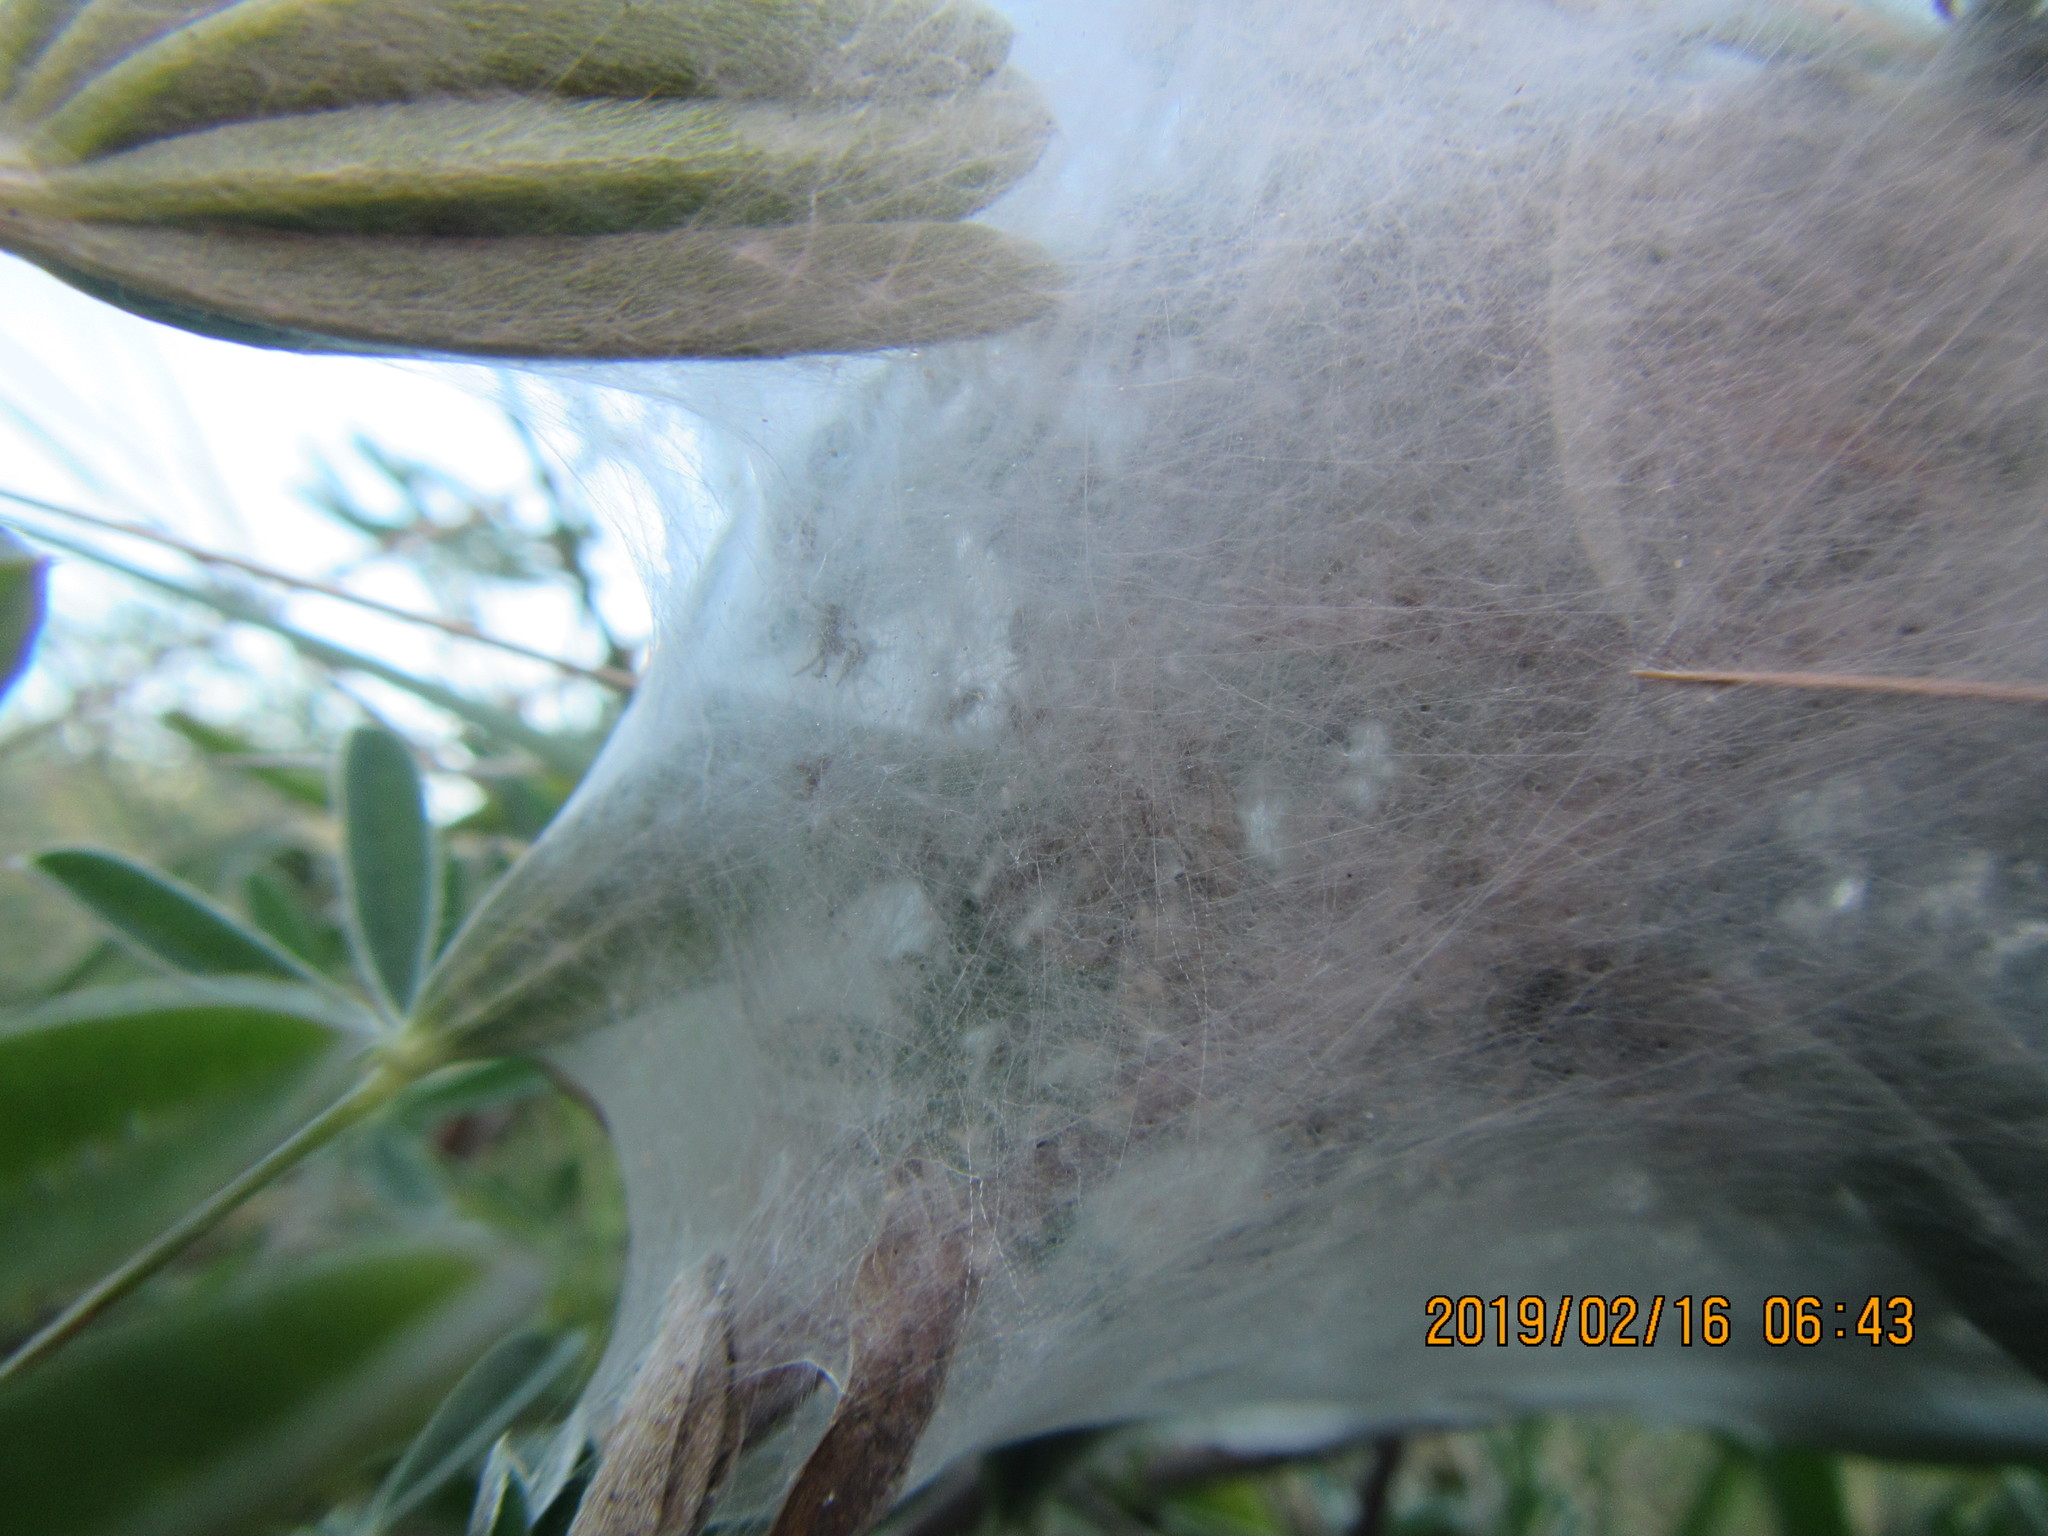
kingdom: Animalia
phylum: Arthropoda
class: Arachnida
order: Araneae
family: Pisauridae
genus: Dolomedes
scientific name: Dolomedes minor
